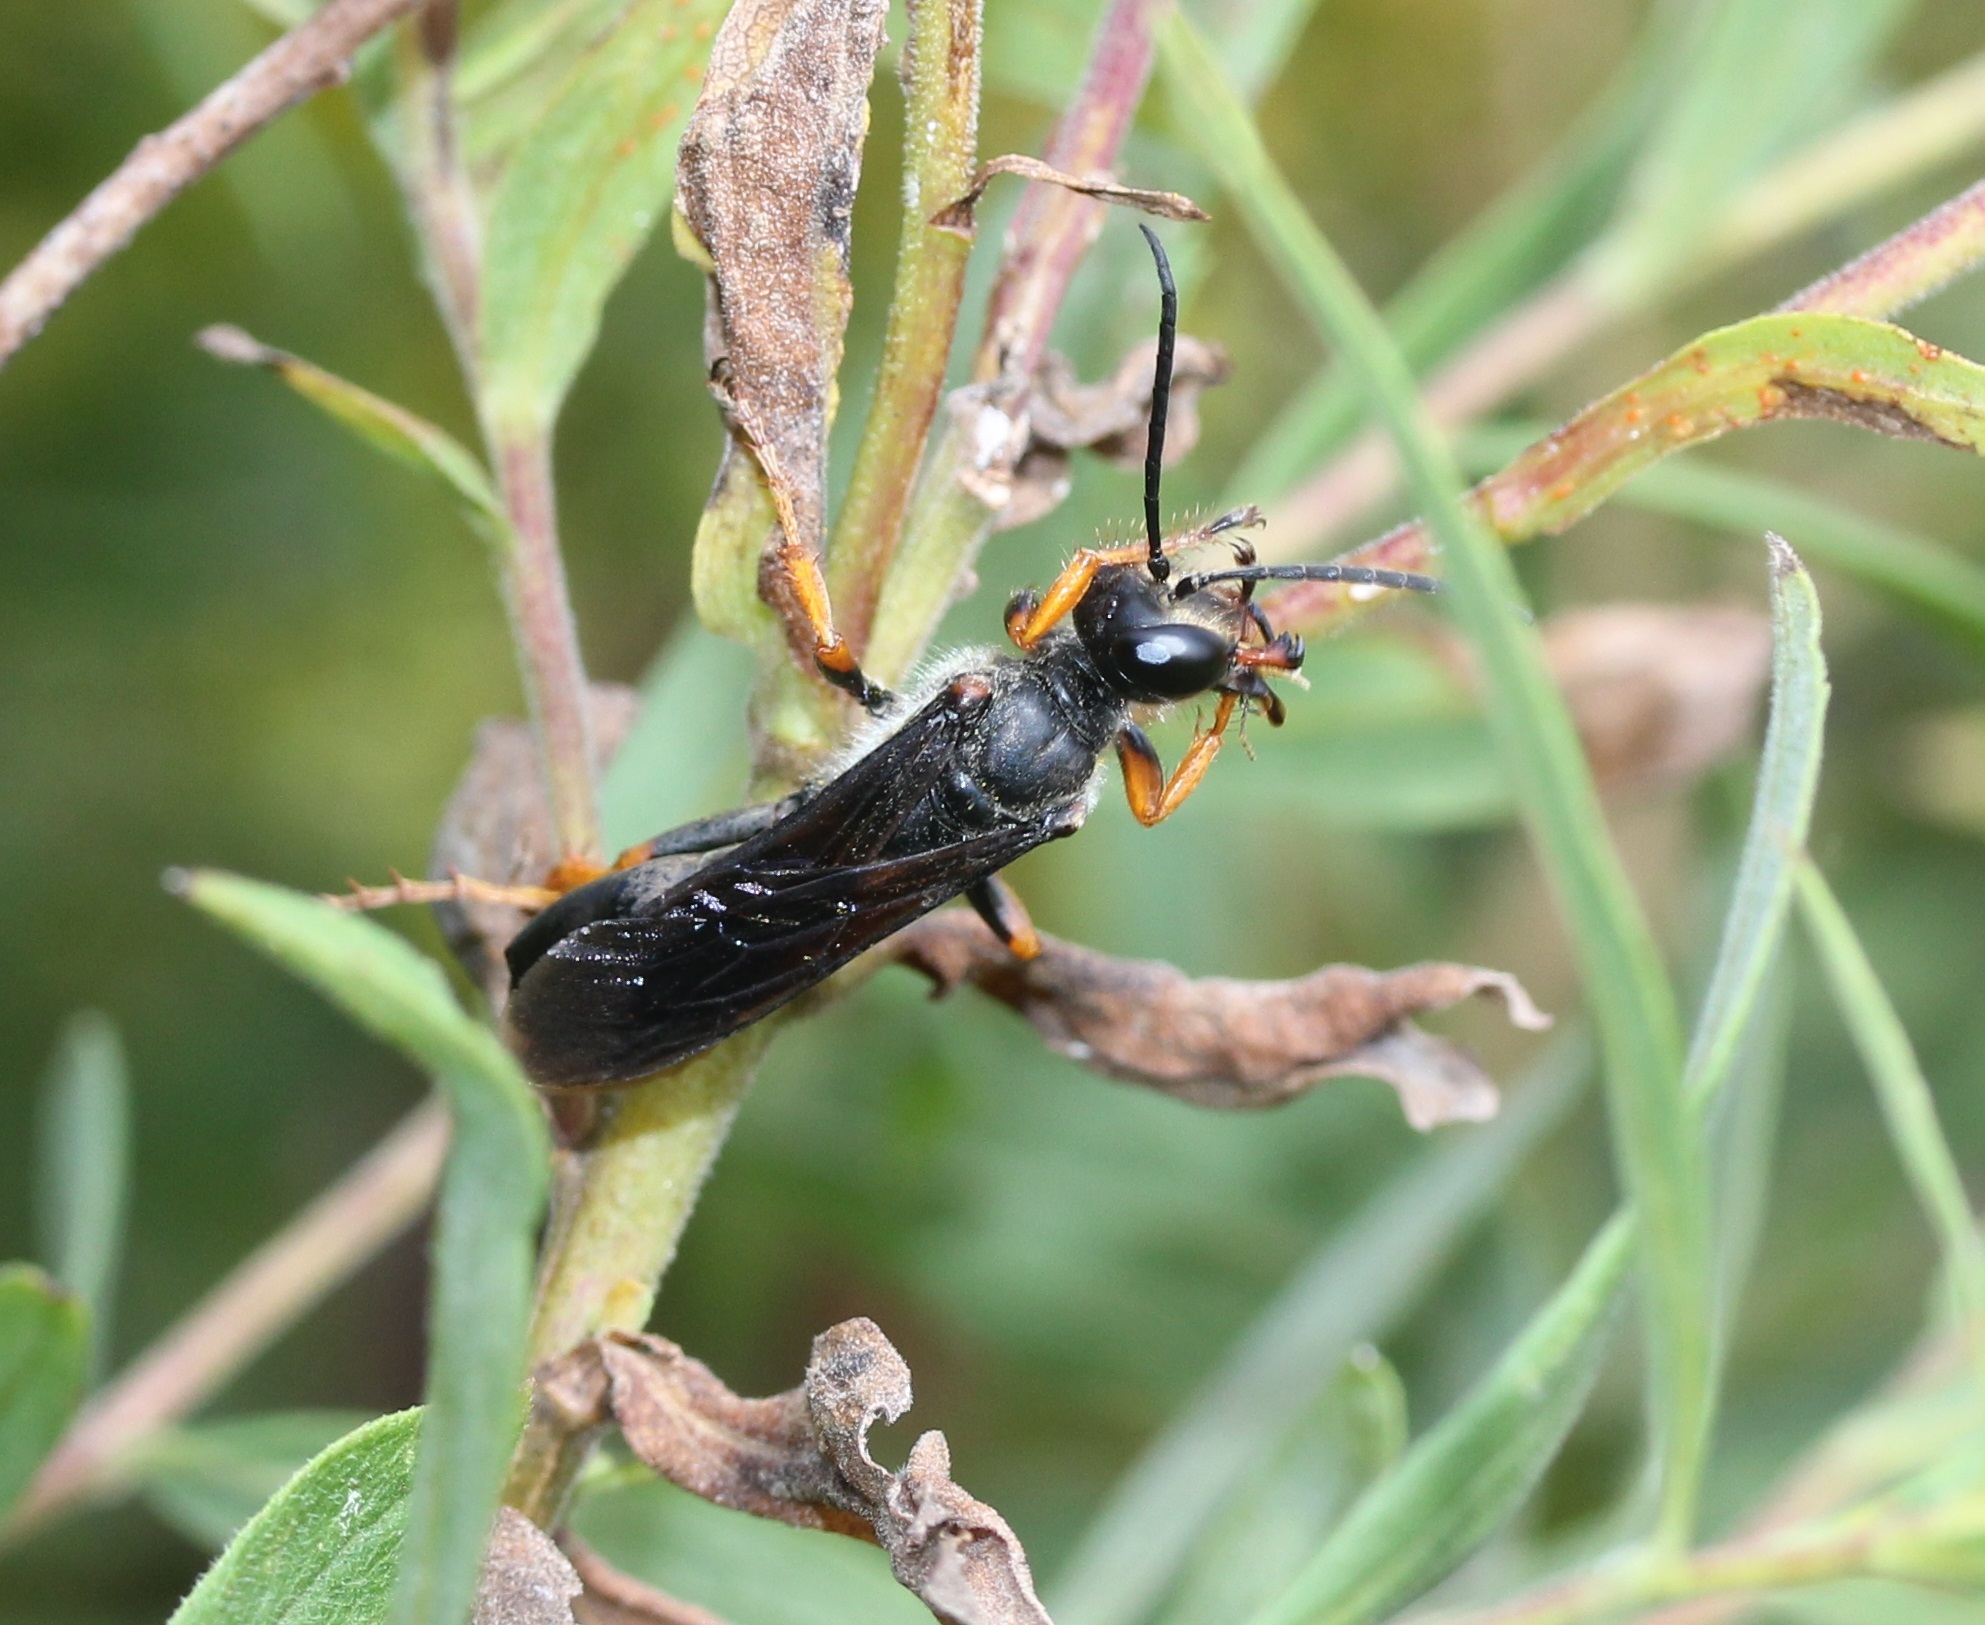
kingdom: Animalia
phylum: Arthropoda
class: Insecta
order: Hymenoptera
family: Sphecidae
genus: Sphex
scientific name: Sphex nudus
